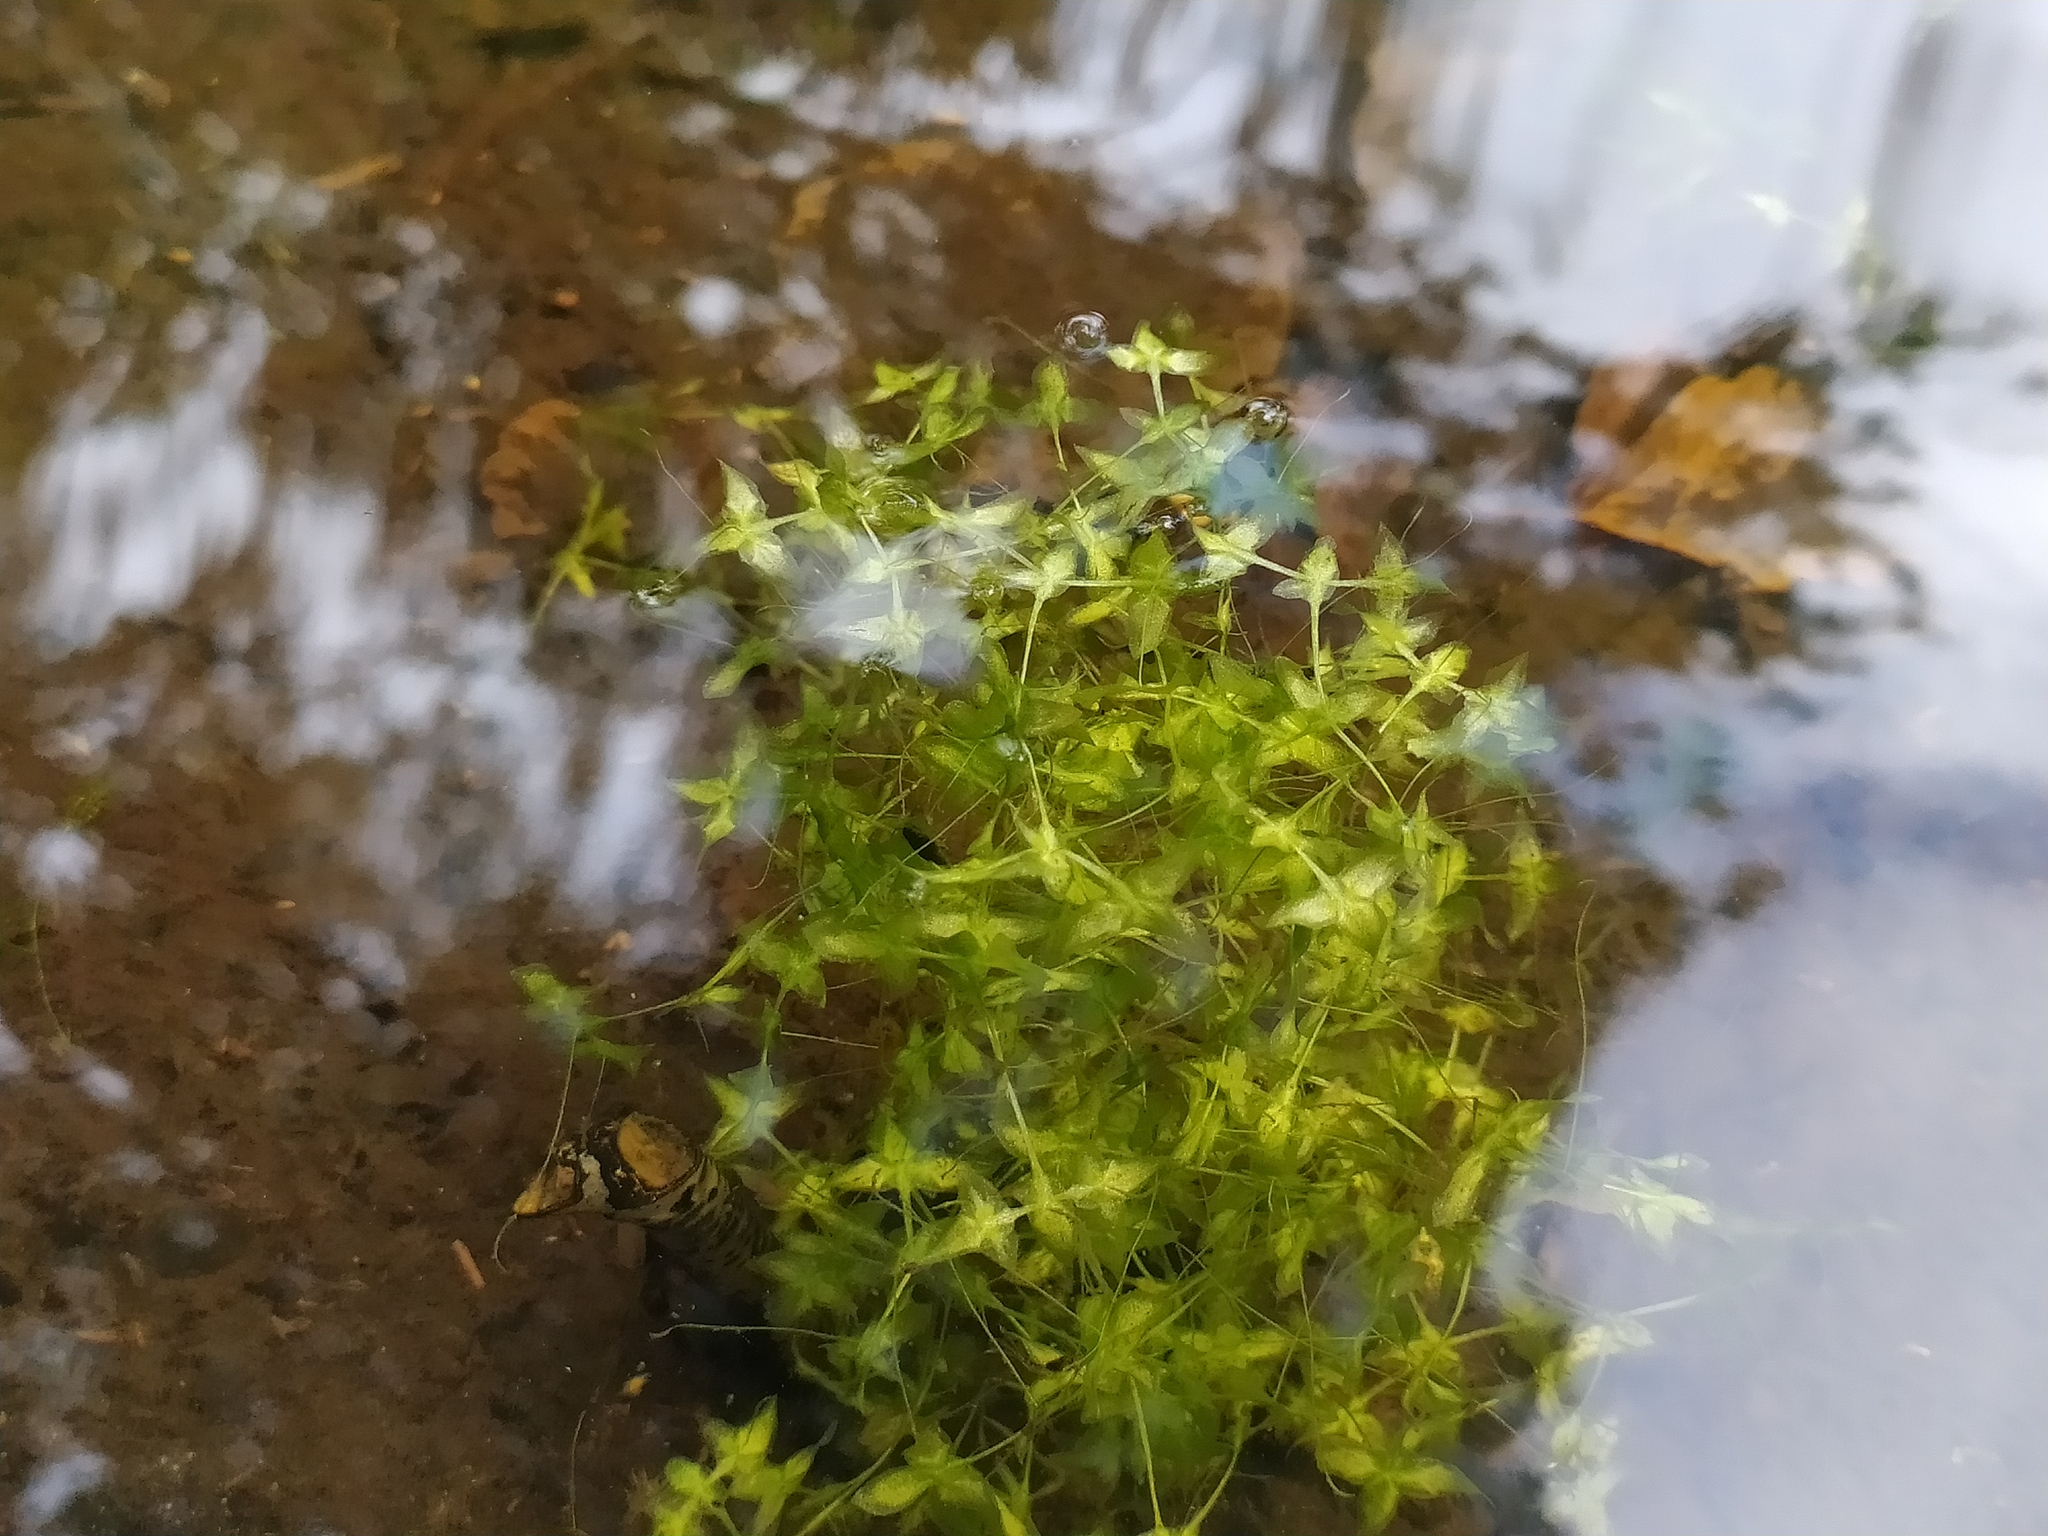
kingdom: Plantae
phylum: Tracheophyta
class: Liliopsida
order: Alismatales
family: Araceae
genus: Lemna
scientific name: Lemna trisulca
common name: Ivy-leaved duckweed
